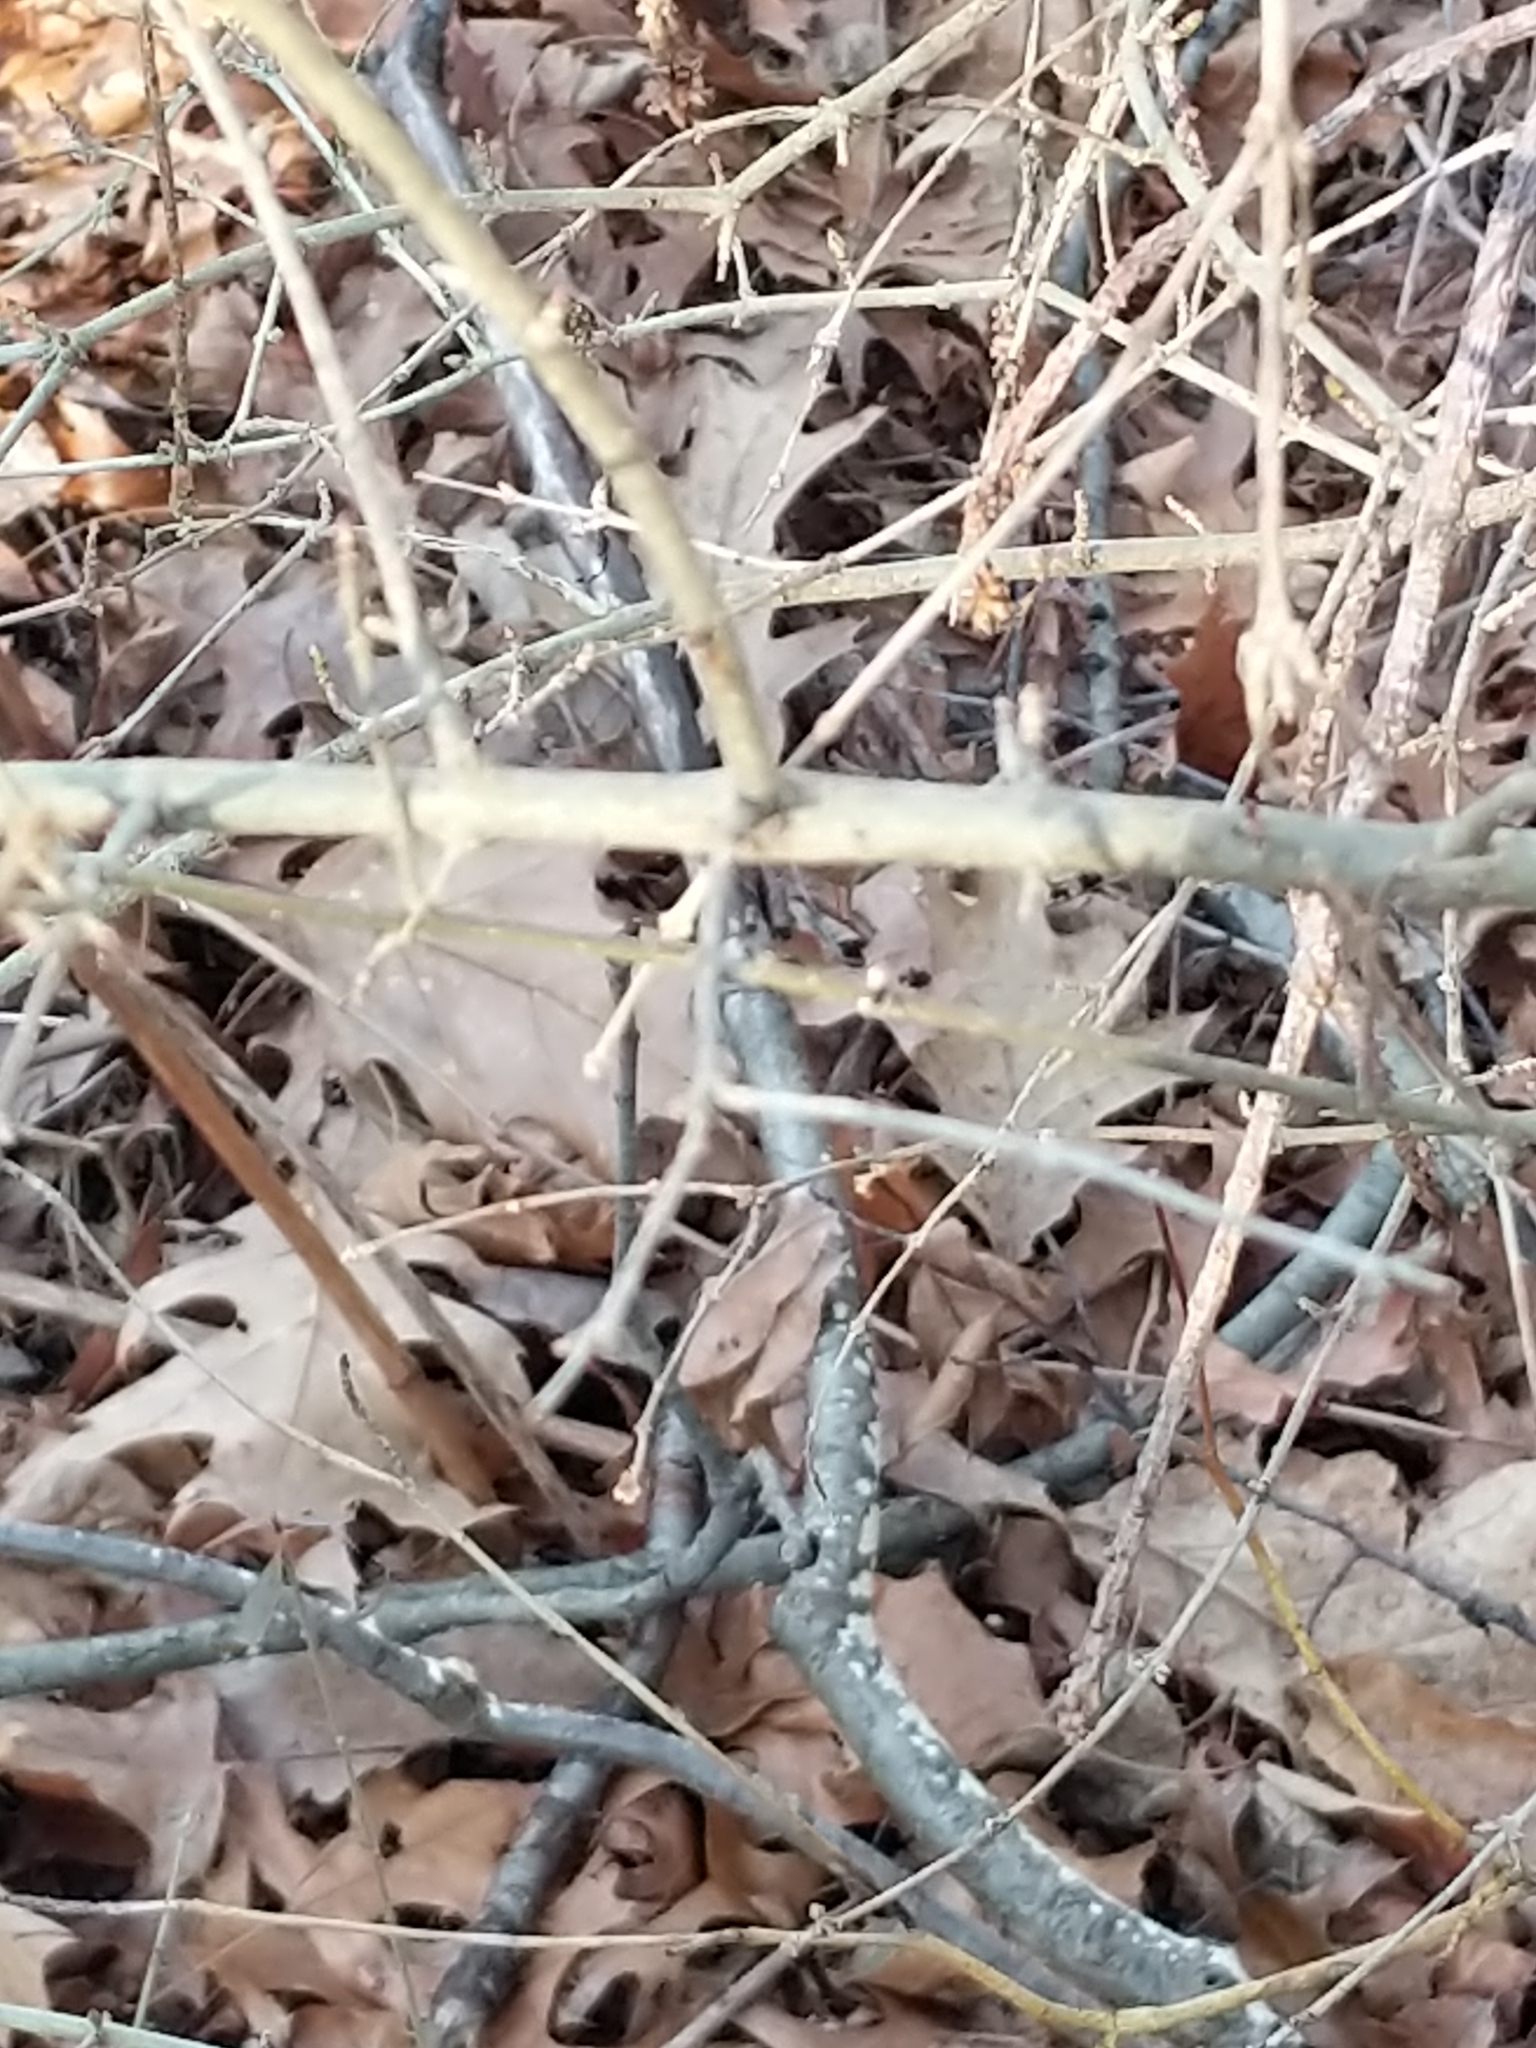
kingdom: Plantae
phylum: Tracheophyta
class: Magnoliopsida
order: Lamiales
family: Oleaceae
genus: Ligustrum
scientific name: Ligustrum obtusifolium
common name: Border privet
